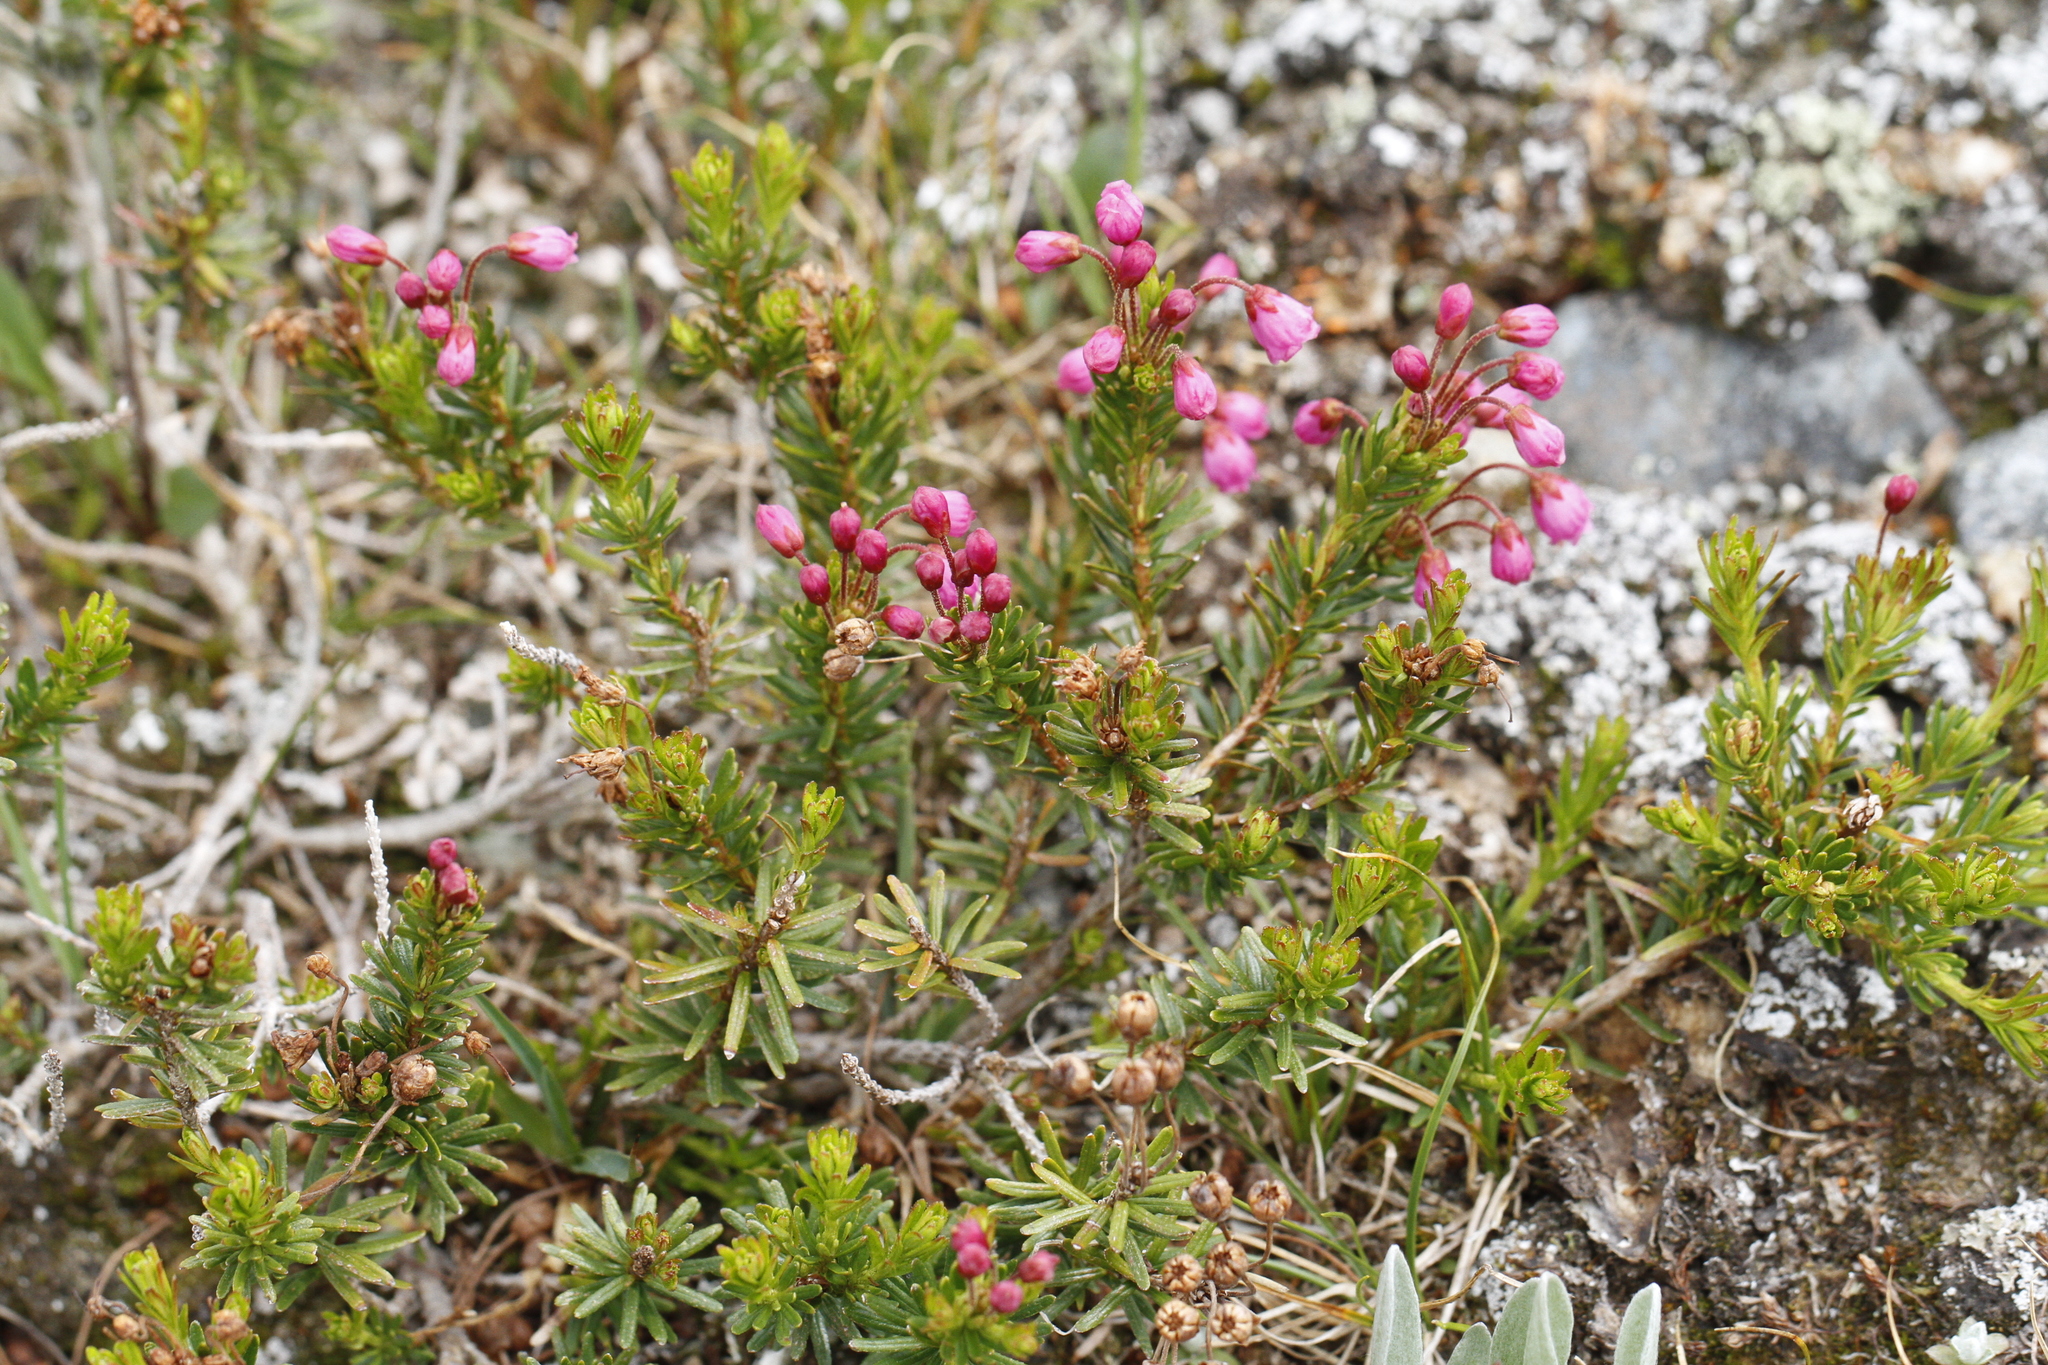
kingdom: Plantae
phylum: Tracheophyta
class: Magnoliopsida
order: Ericales
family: Ericaceae
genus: Phyllodoce
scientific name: Phyllodoce empetriformis
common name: Pink mountain heather
